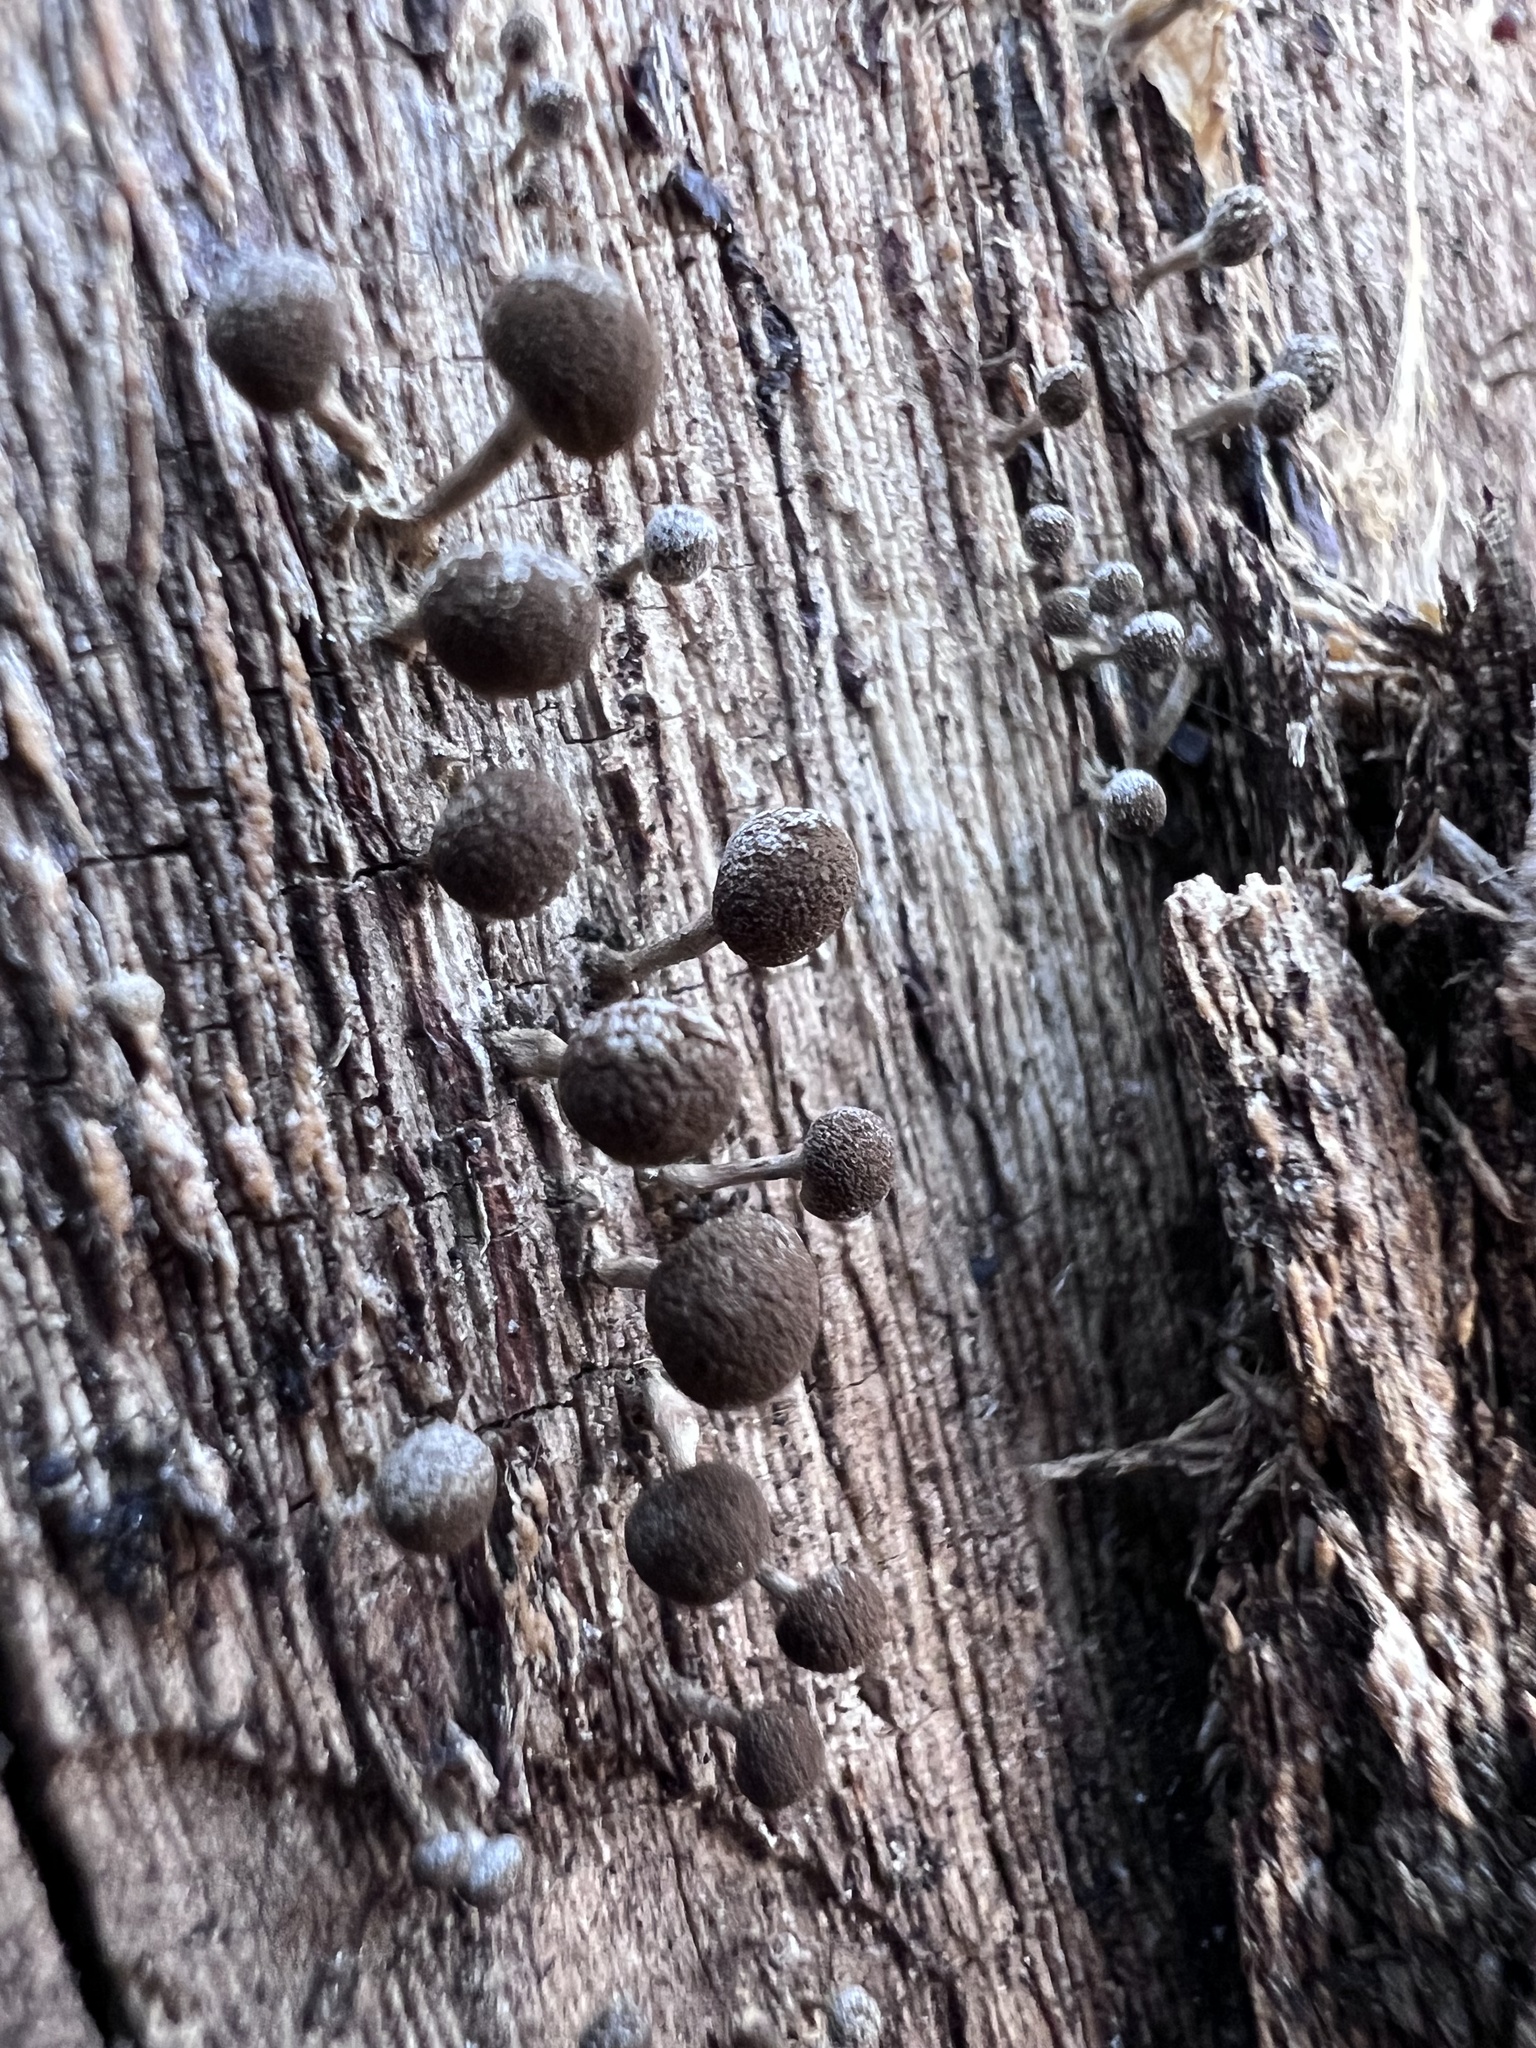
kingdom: Fungi
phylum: Basidiomycota
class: Atractiellomycetes
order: Atractiellales
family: Phleogenaceae
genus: Phleogena
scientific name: Phleogena faginea
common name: Fenugreek stalkball
